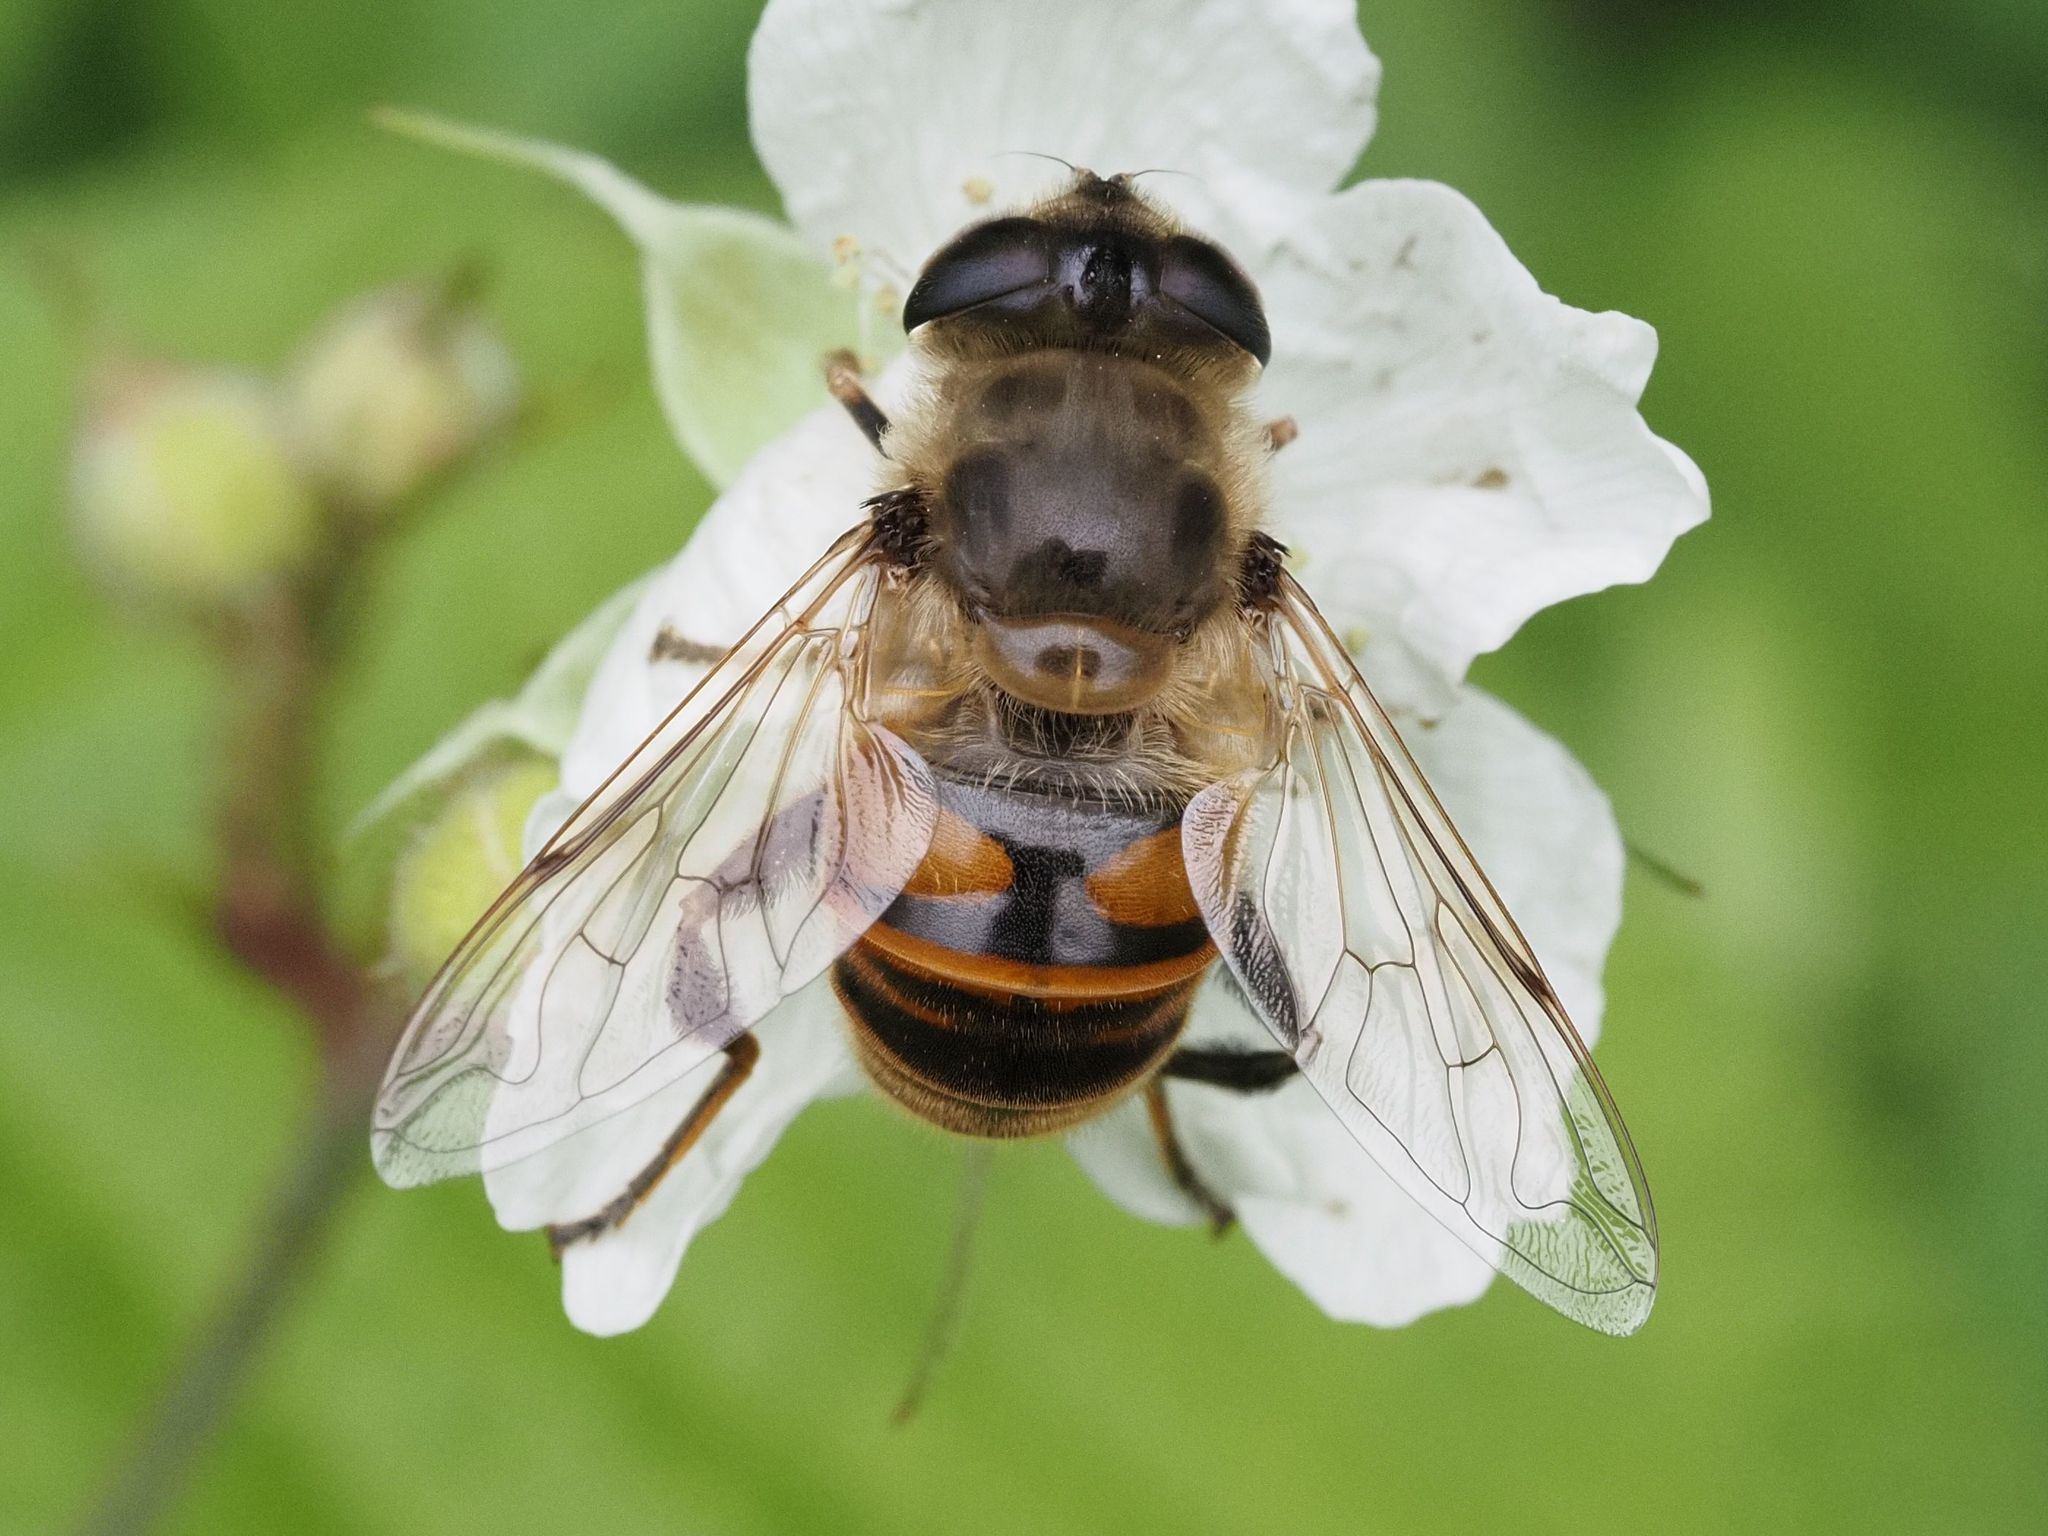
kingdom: Animalia
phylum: Arthropoda
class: Insecta
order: Diptera
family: Syrphidae
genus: Eristalis
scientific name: Eristalis tenax
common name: Drone fly
